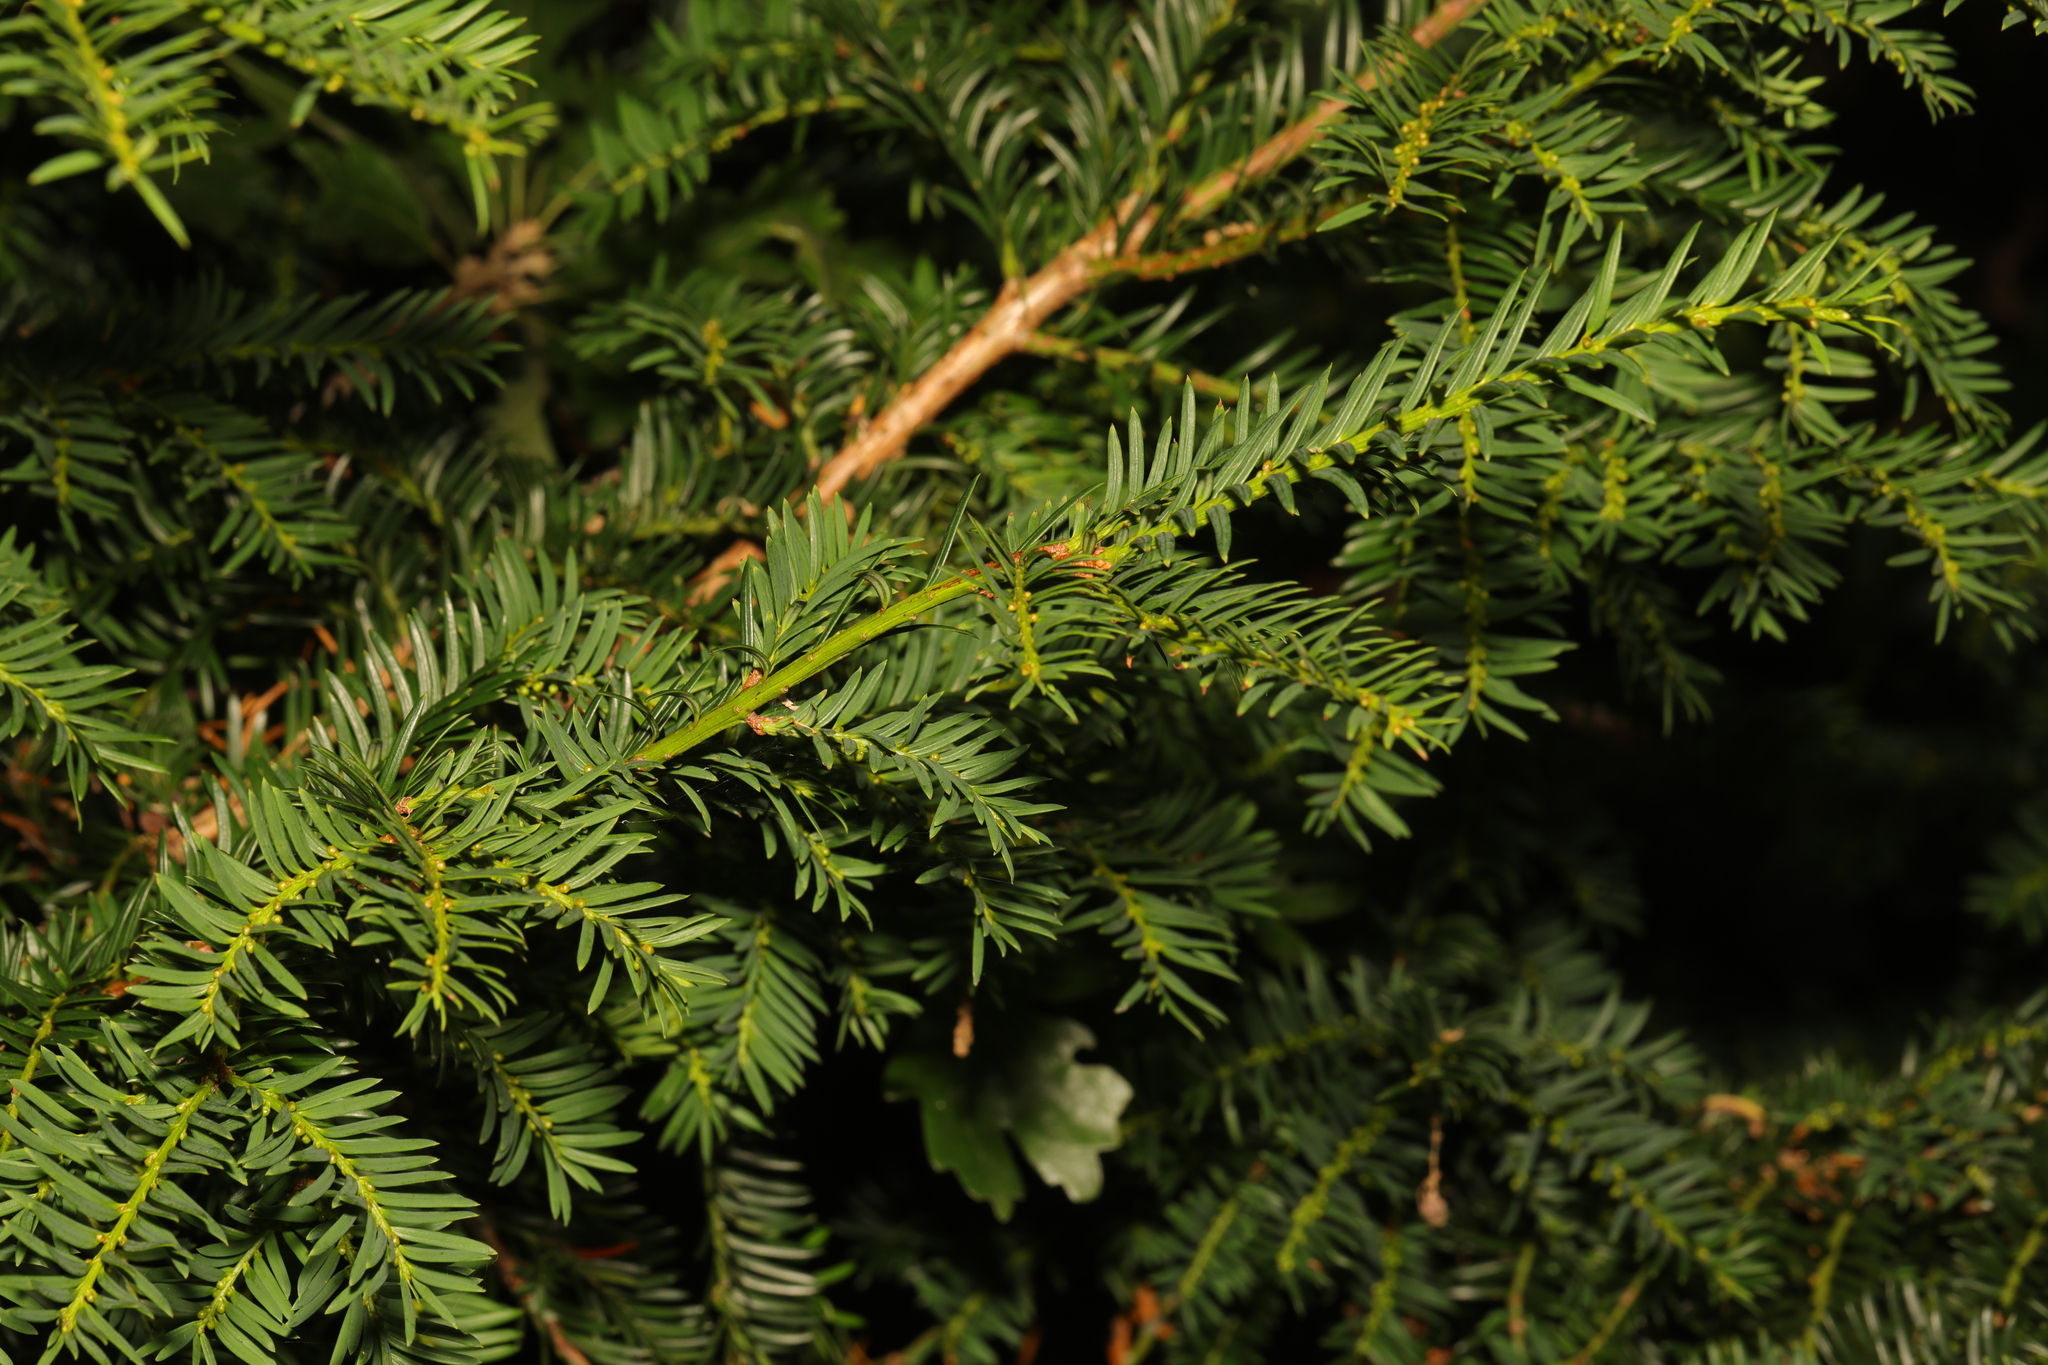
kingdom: Plantae
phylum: Tracheophyta
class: Pinopsida
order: Pinales
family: Taxaceae
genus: Taxus
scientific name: Taxus baccata
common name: Yew
